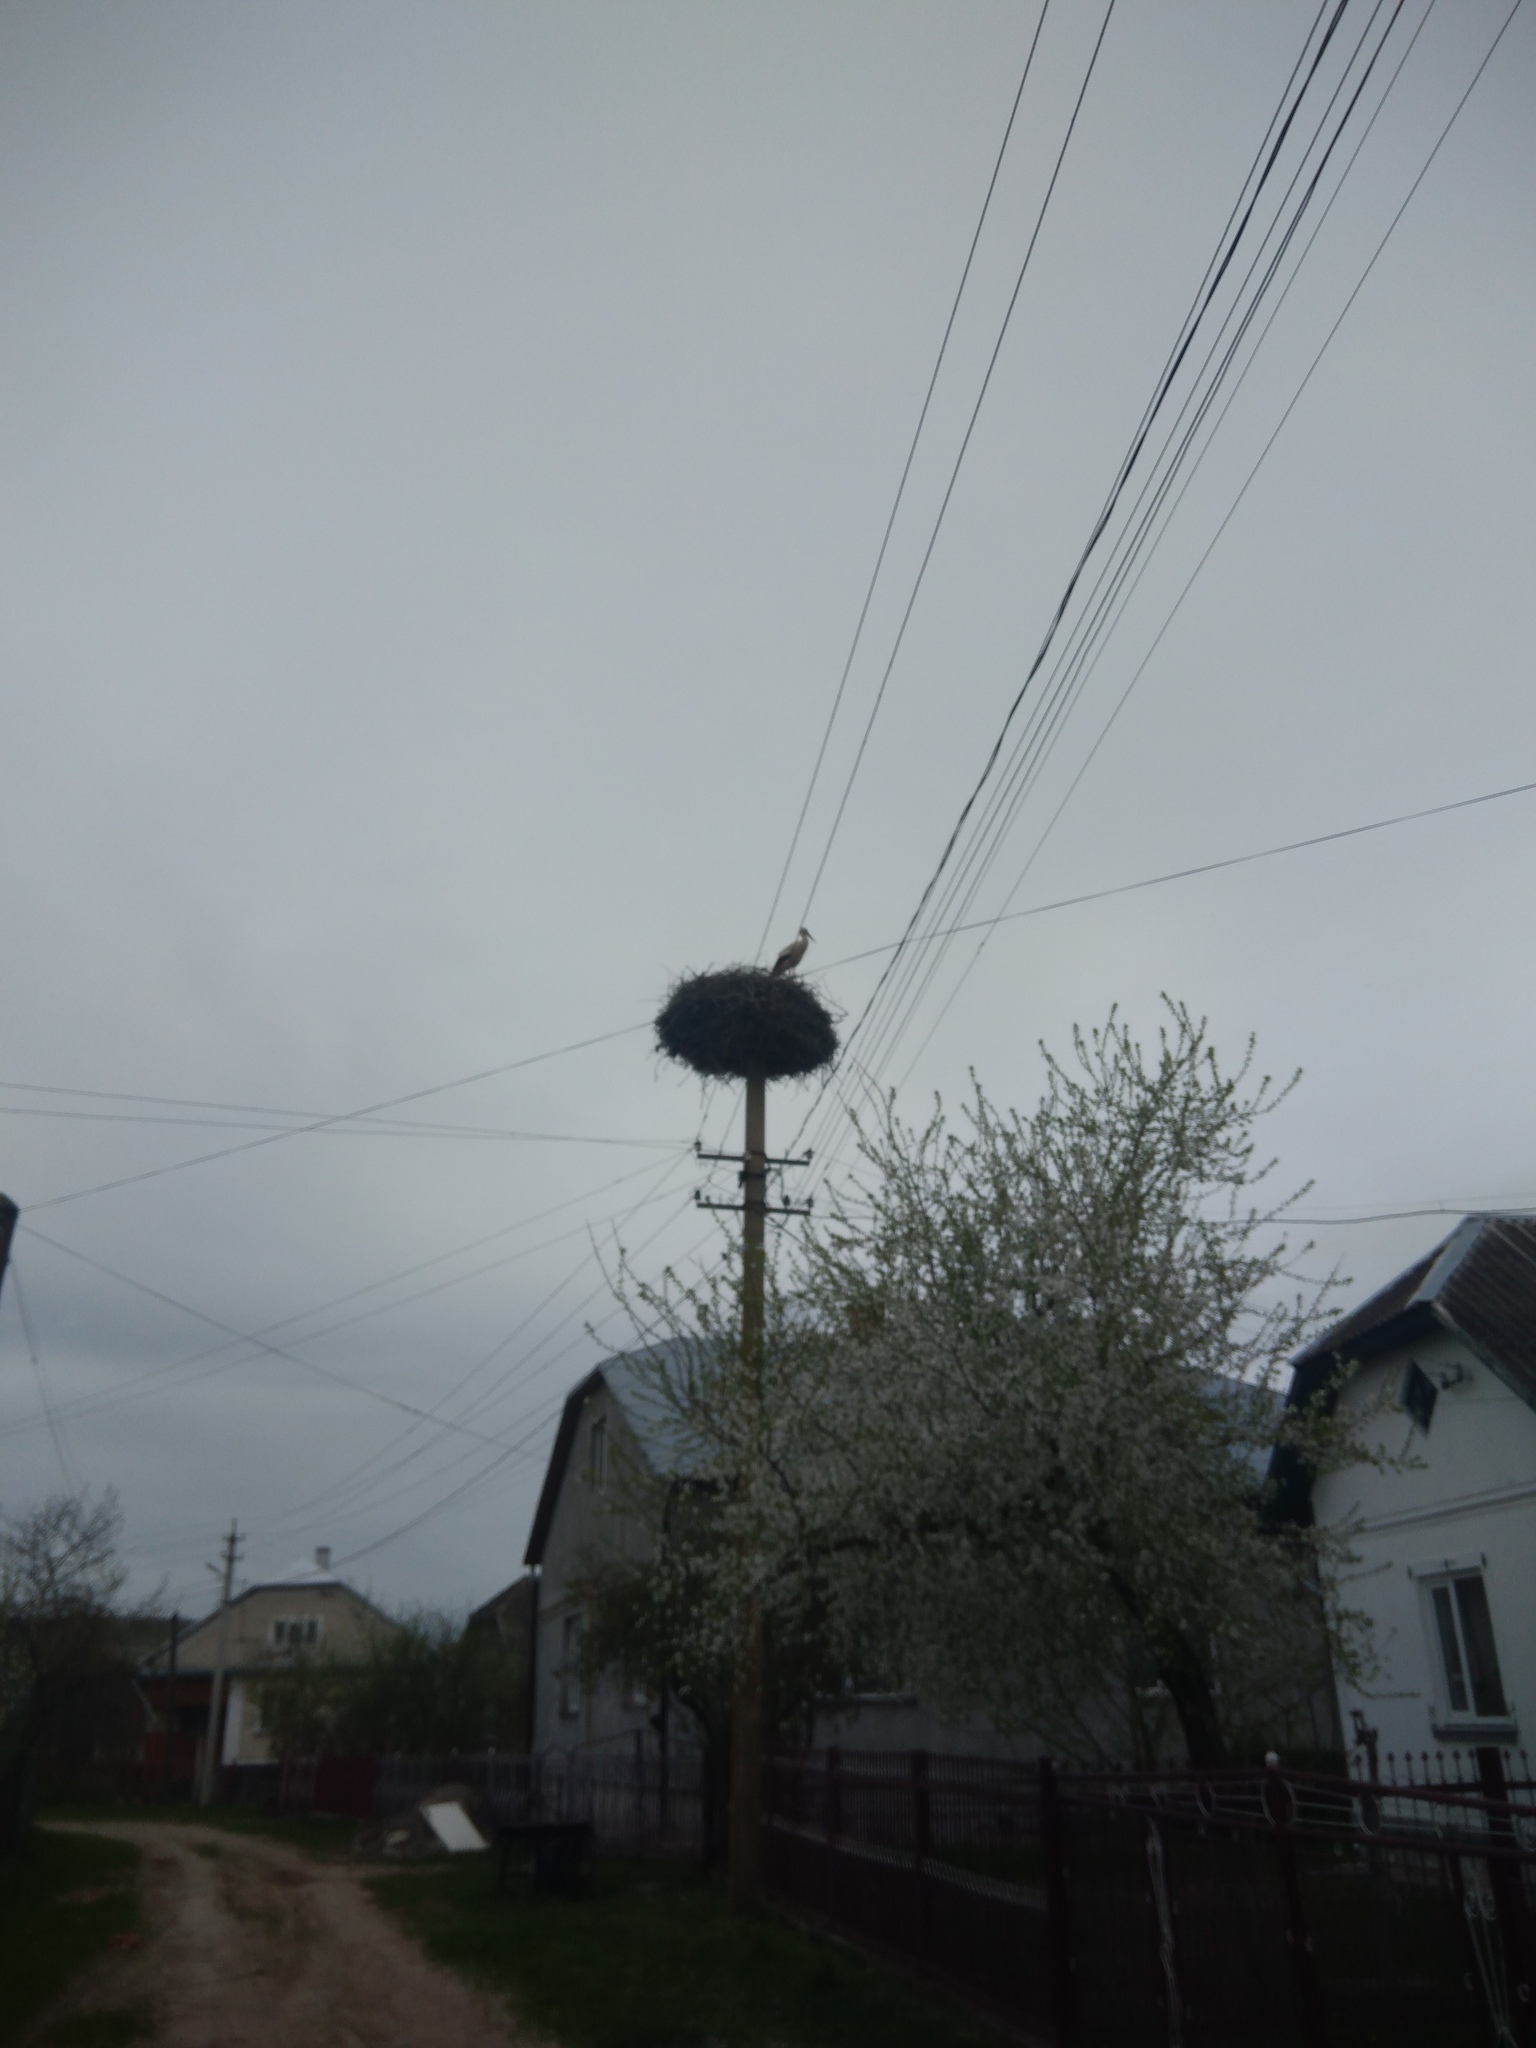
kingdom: Animalia
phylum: Chordata
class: Aves
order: Ciconiiformes
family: Ciconiidae
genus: Ciconia
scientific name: Ciconia ciconia
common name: White stork
